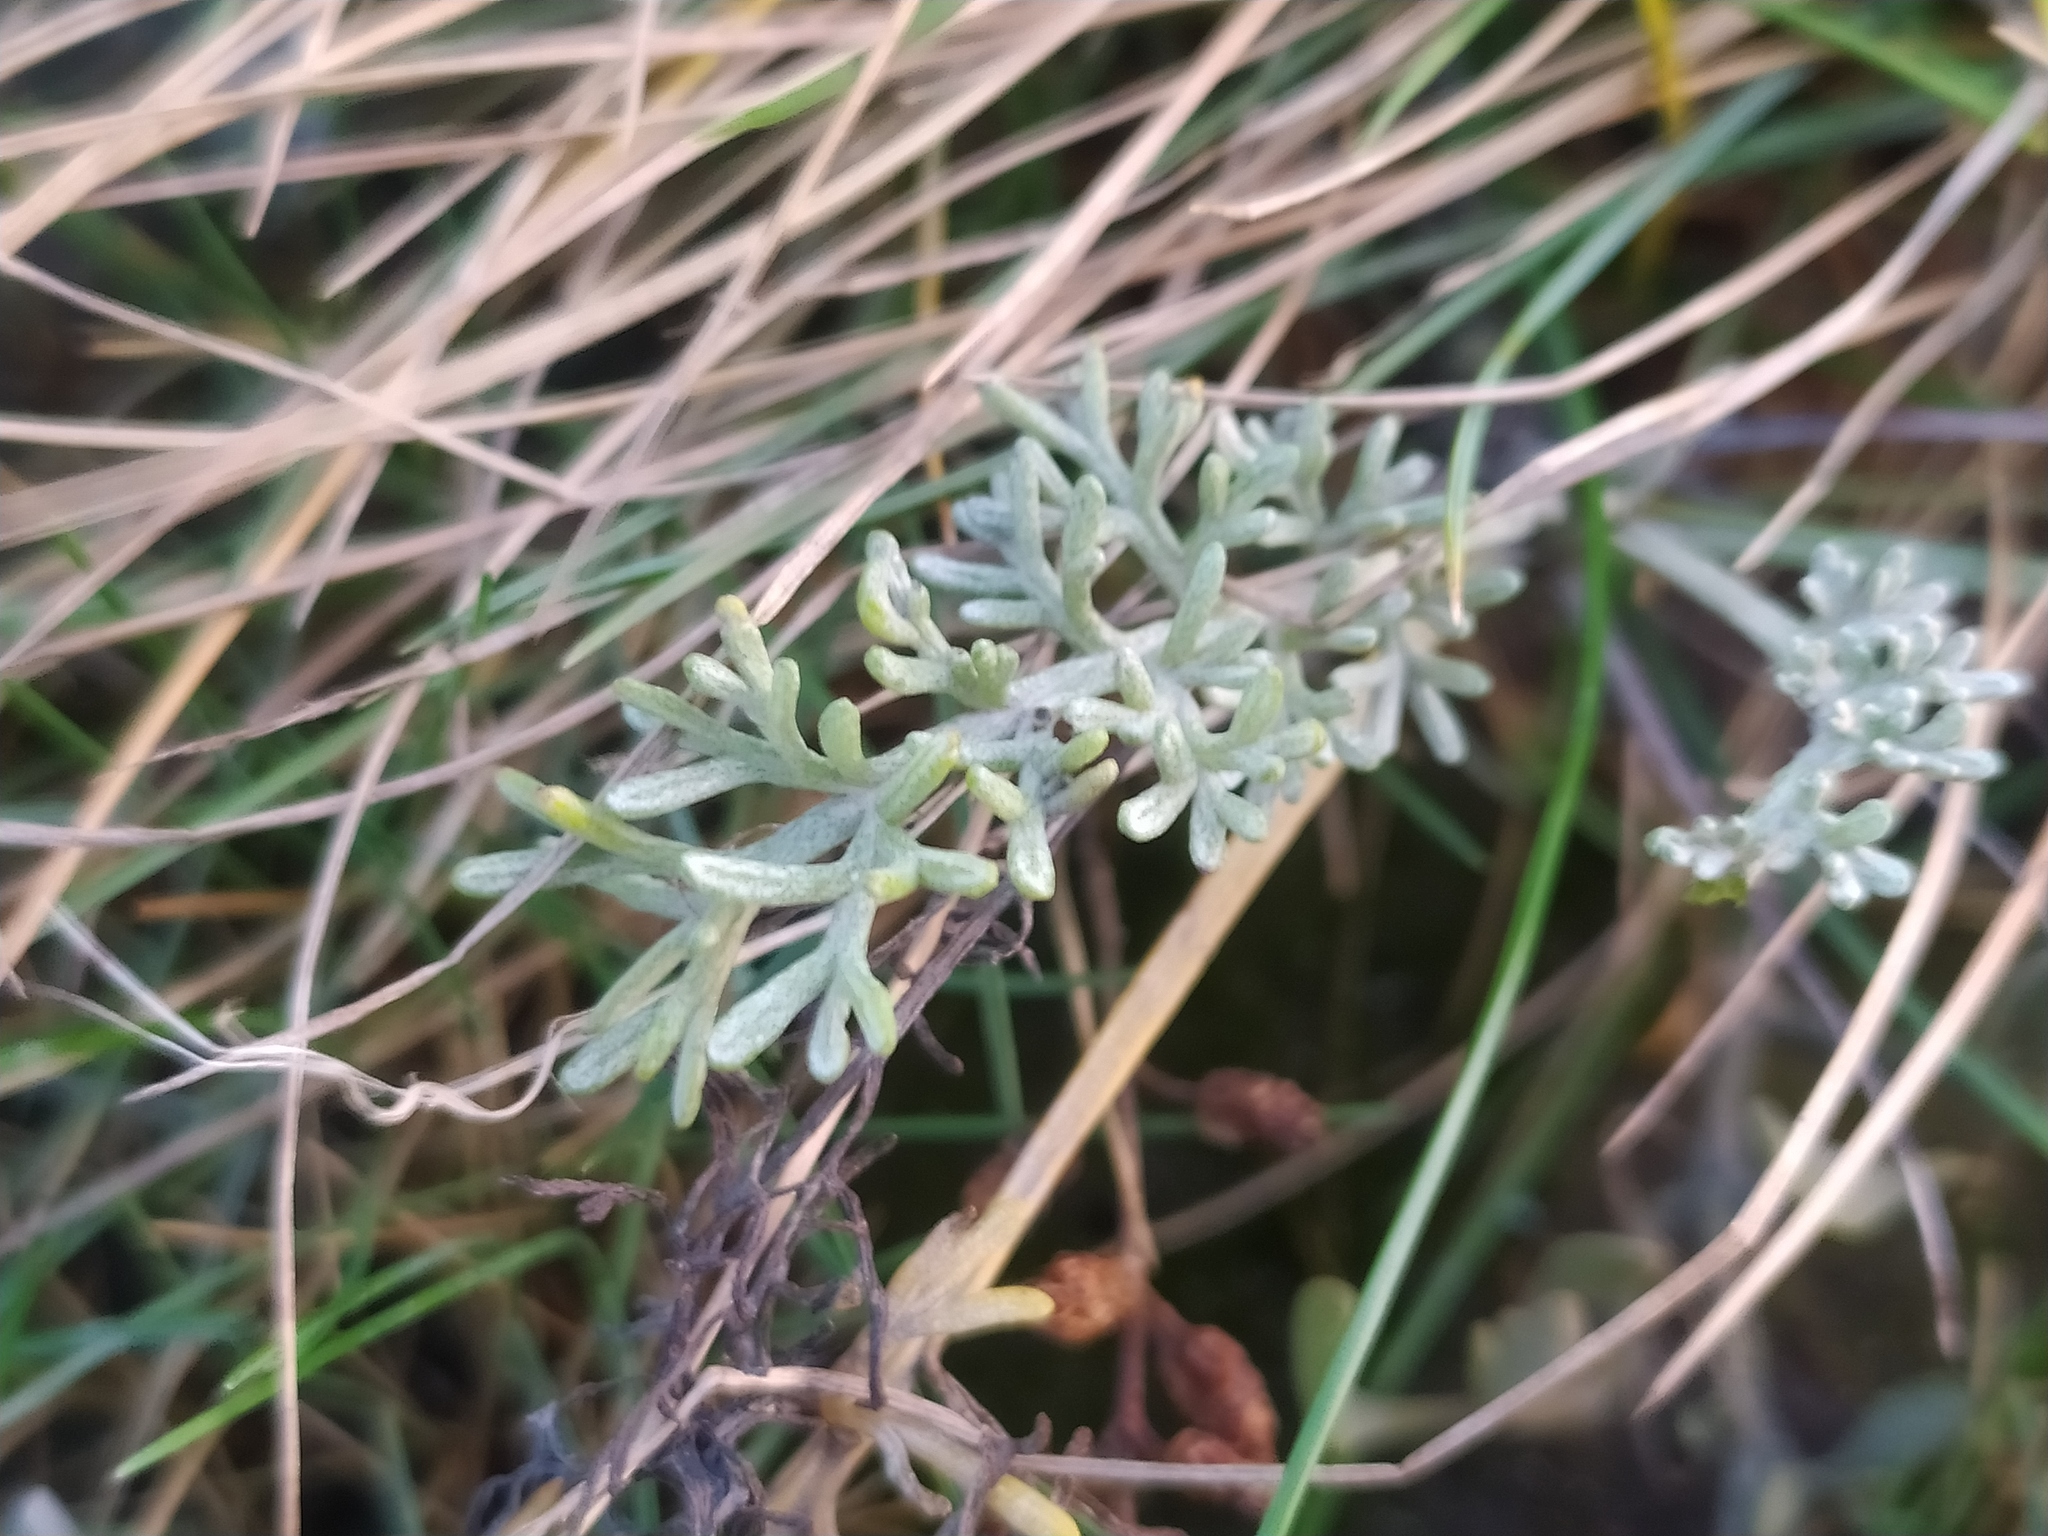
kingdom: Plantae
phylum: Tracheophyta
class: Magnoliopsida
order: Asterales
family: Asteraceae
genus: Artemisia
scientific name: Artemisia maritima
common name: Wormseed
